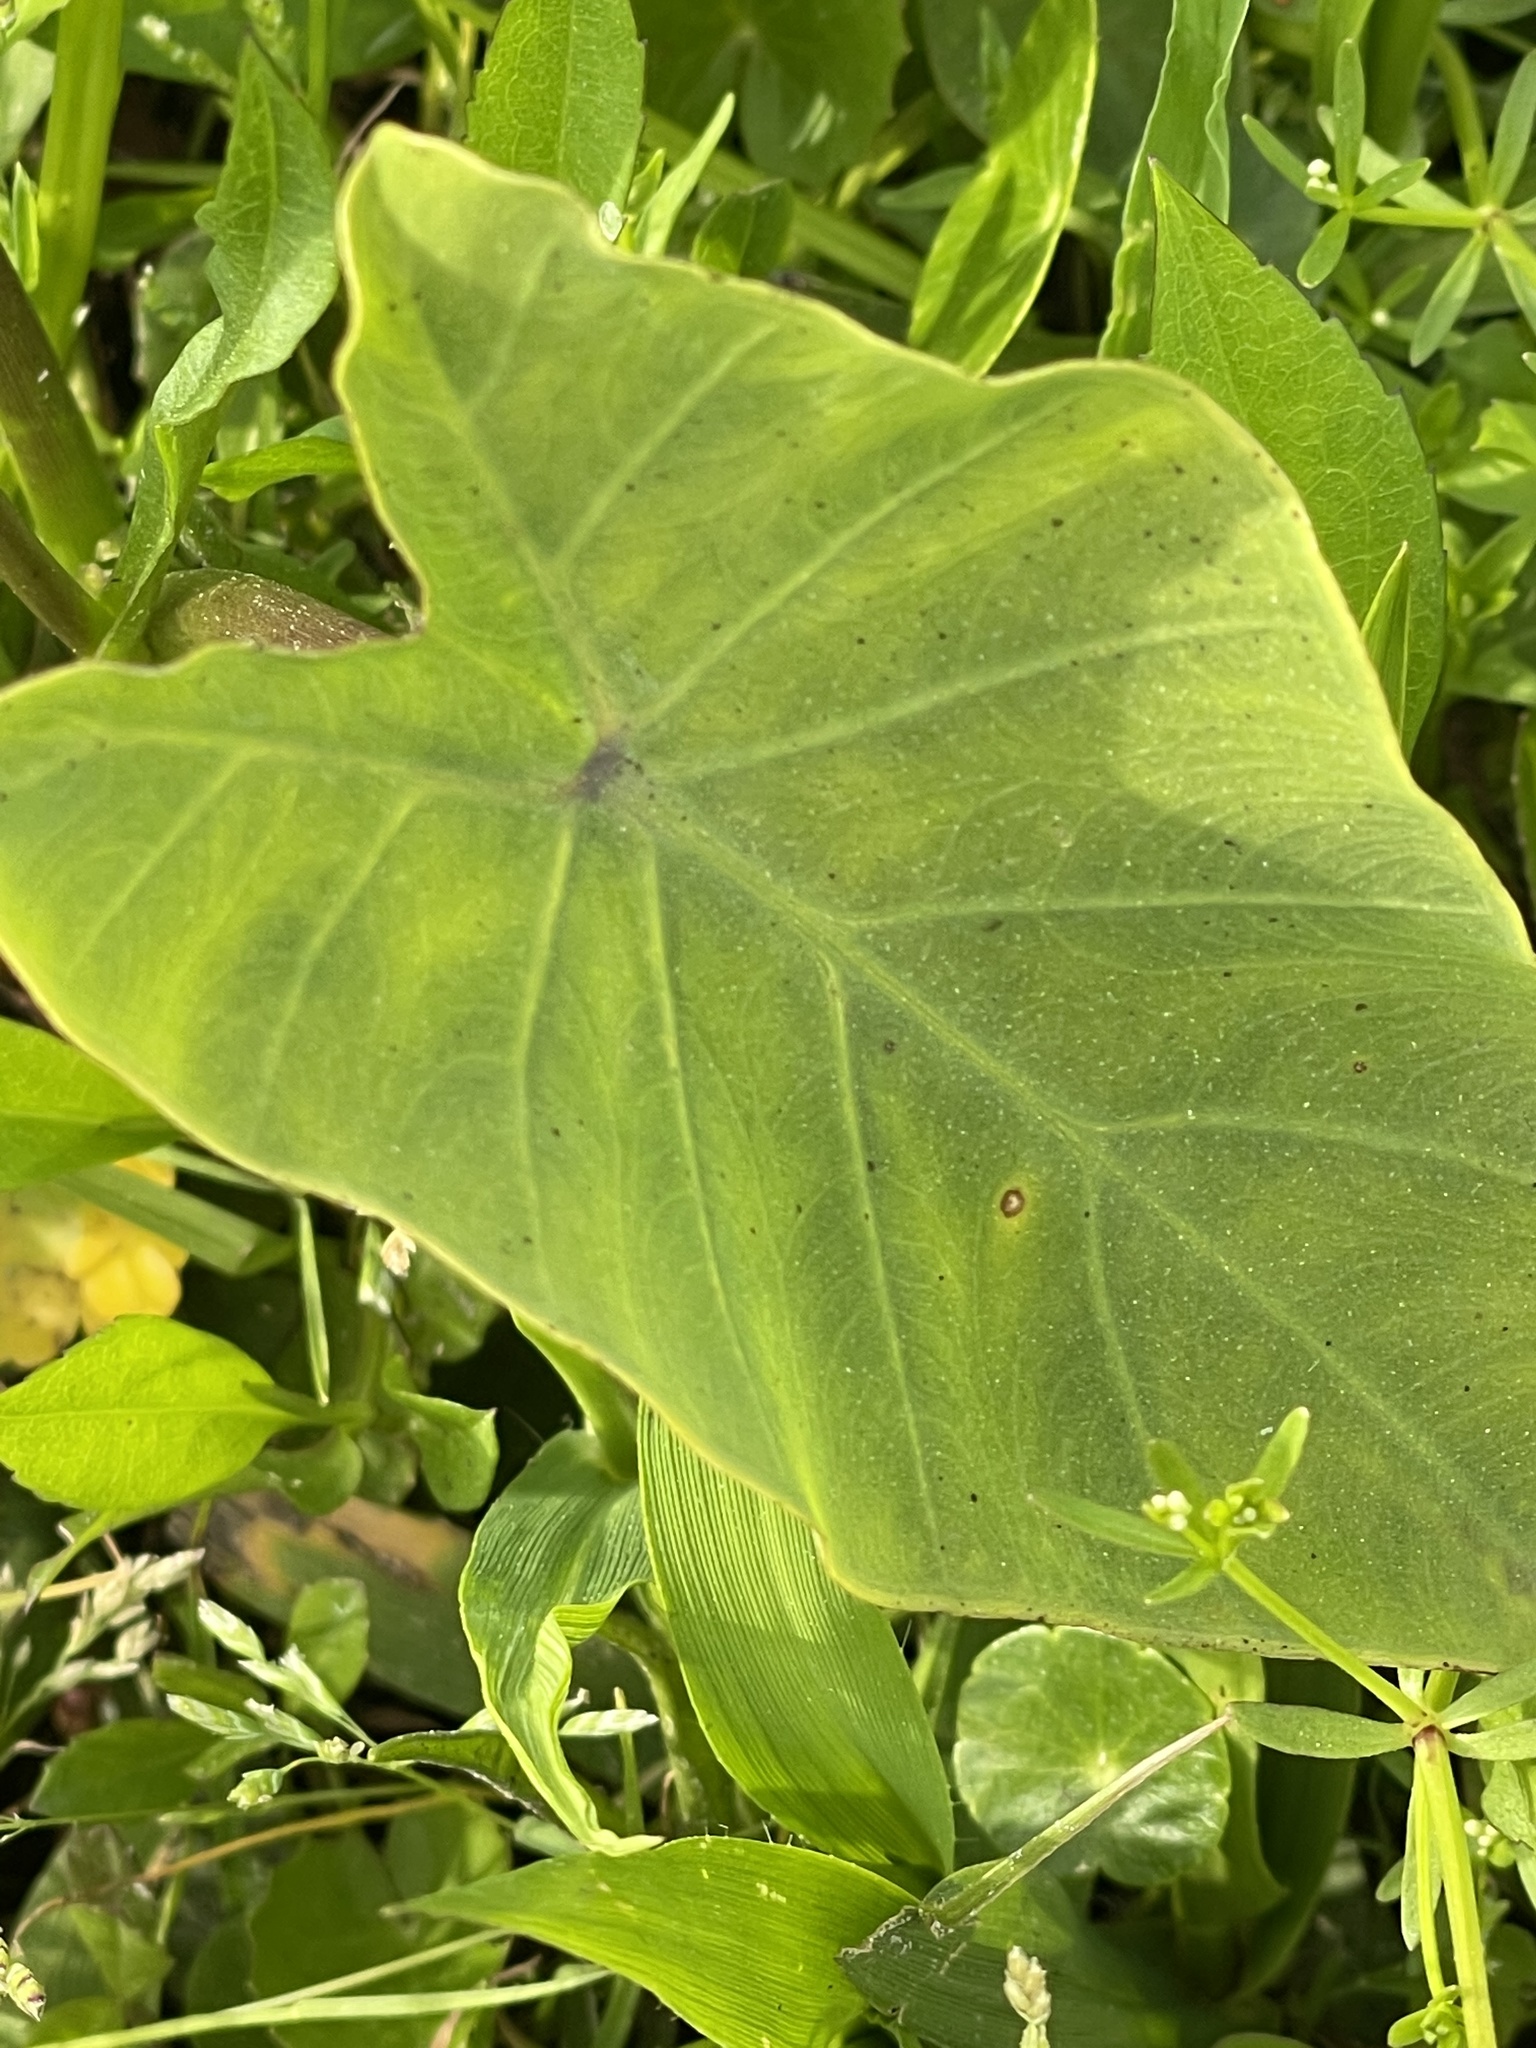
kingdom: Plantae
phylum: Tracheophyta
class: Liliopsida
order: Alismatales
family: Araceae
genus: Colocasia
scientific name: Colocasia esculenta
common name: Taro
